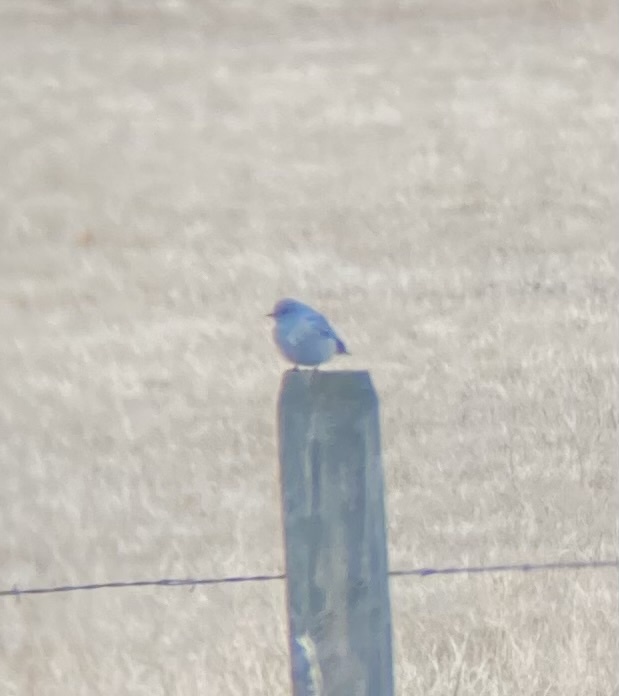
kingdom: Animalia
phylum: Chordata
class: Aves
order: Passeriformes
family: Turdidae
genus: Sialia
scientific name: Sialia currucoides
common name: Mountain bluebird
